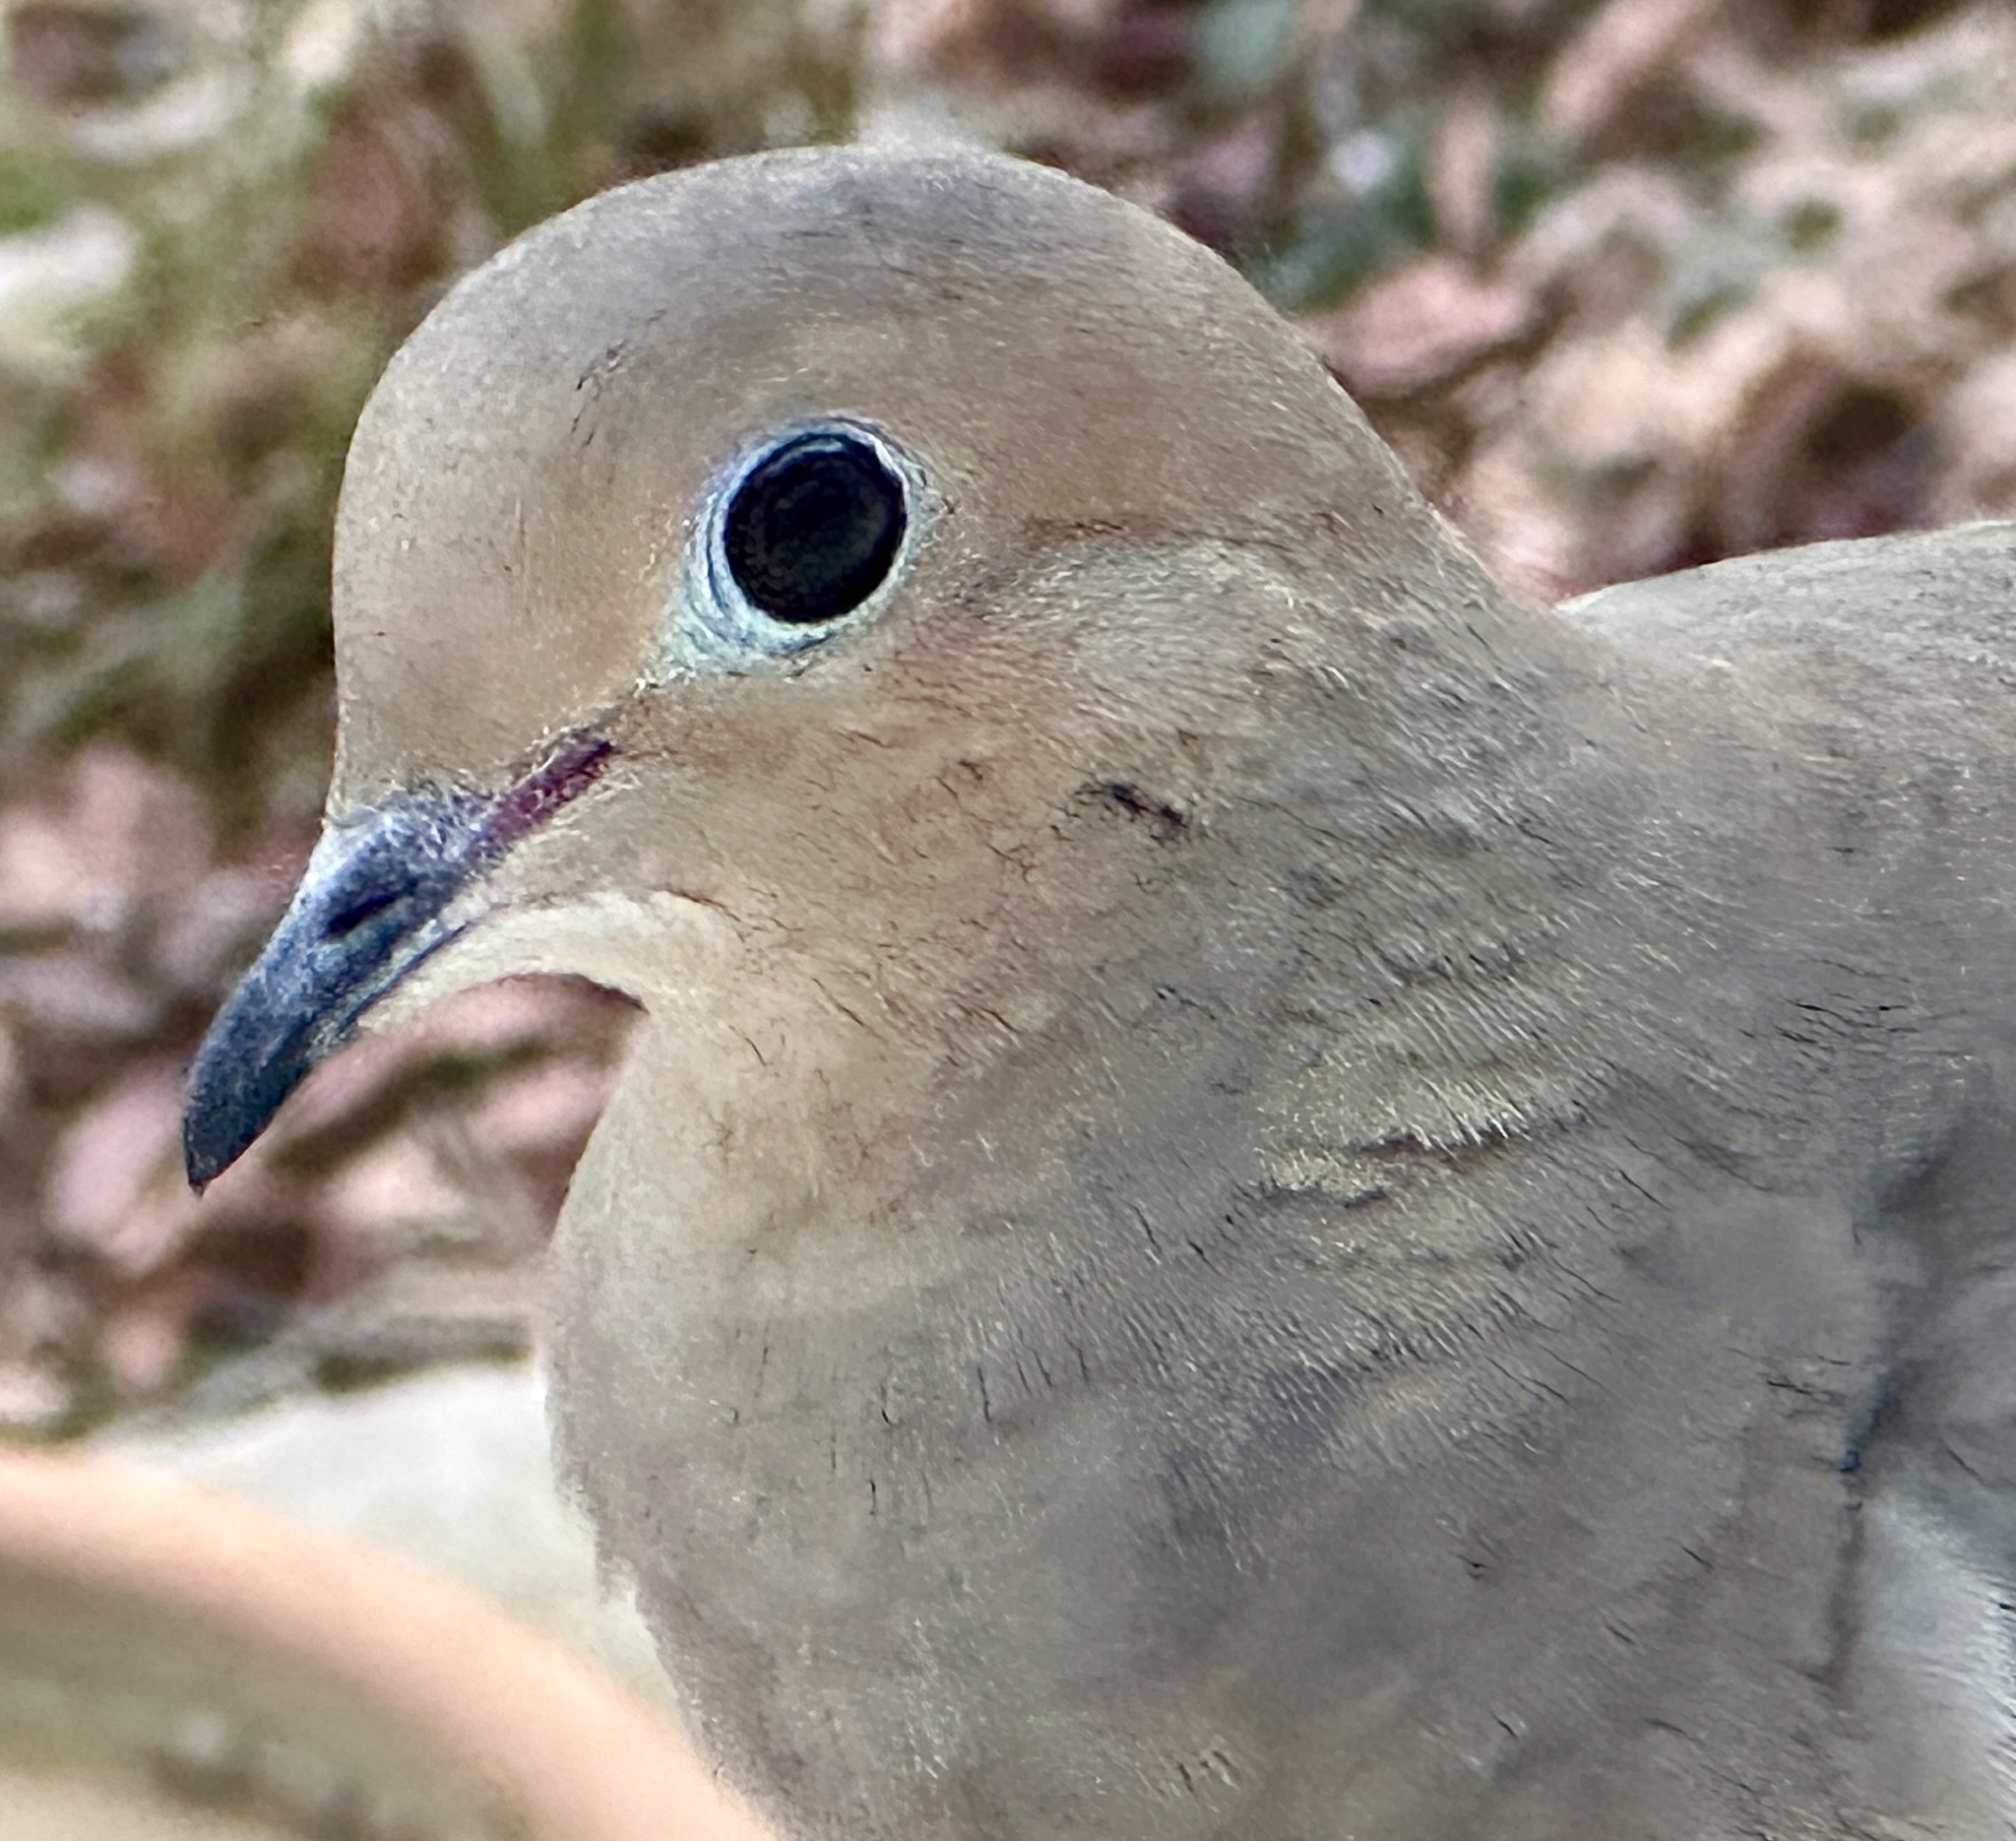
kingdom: Animalia
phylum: Chordata
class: Aves
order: Columbiformes
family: Columbidae
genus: Zenaida
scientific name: Zenaida macroura
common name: Mourning dove
